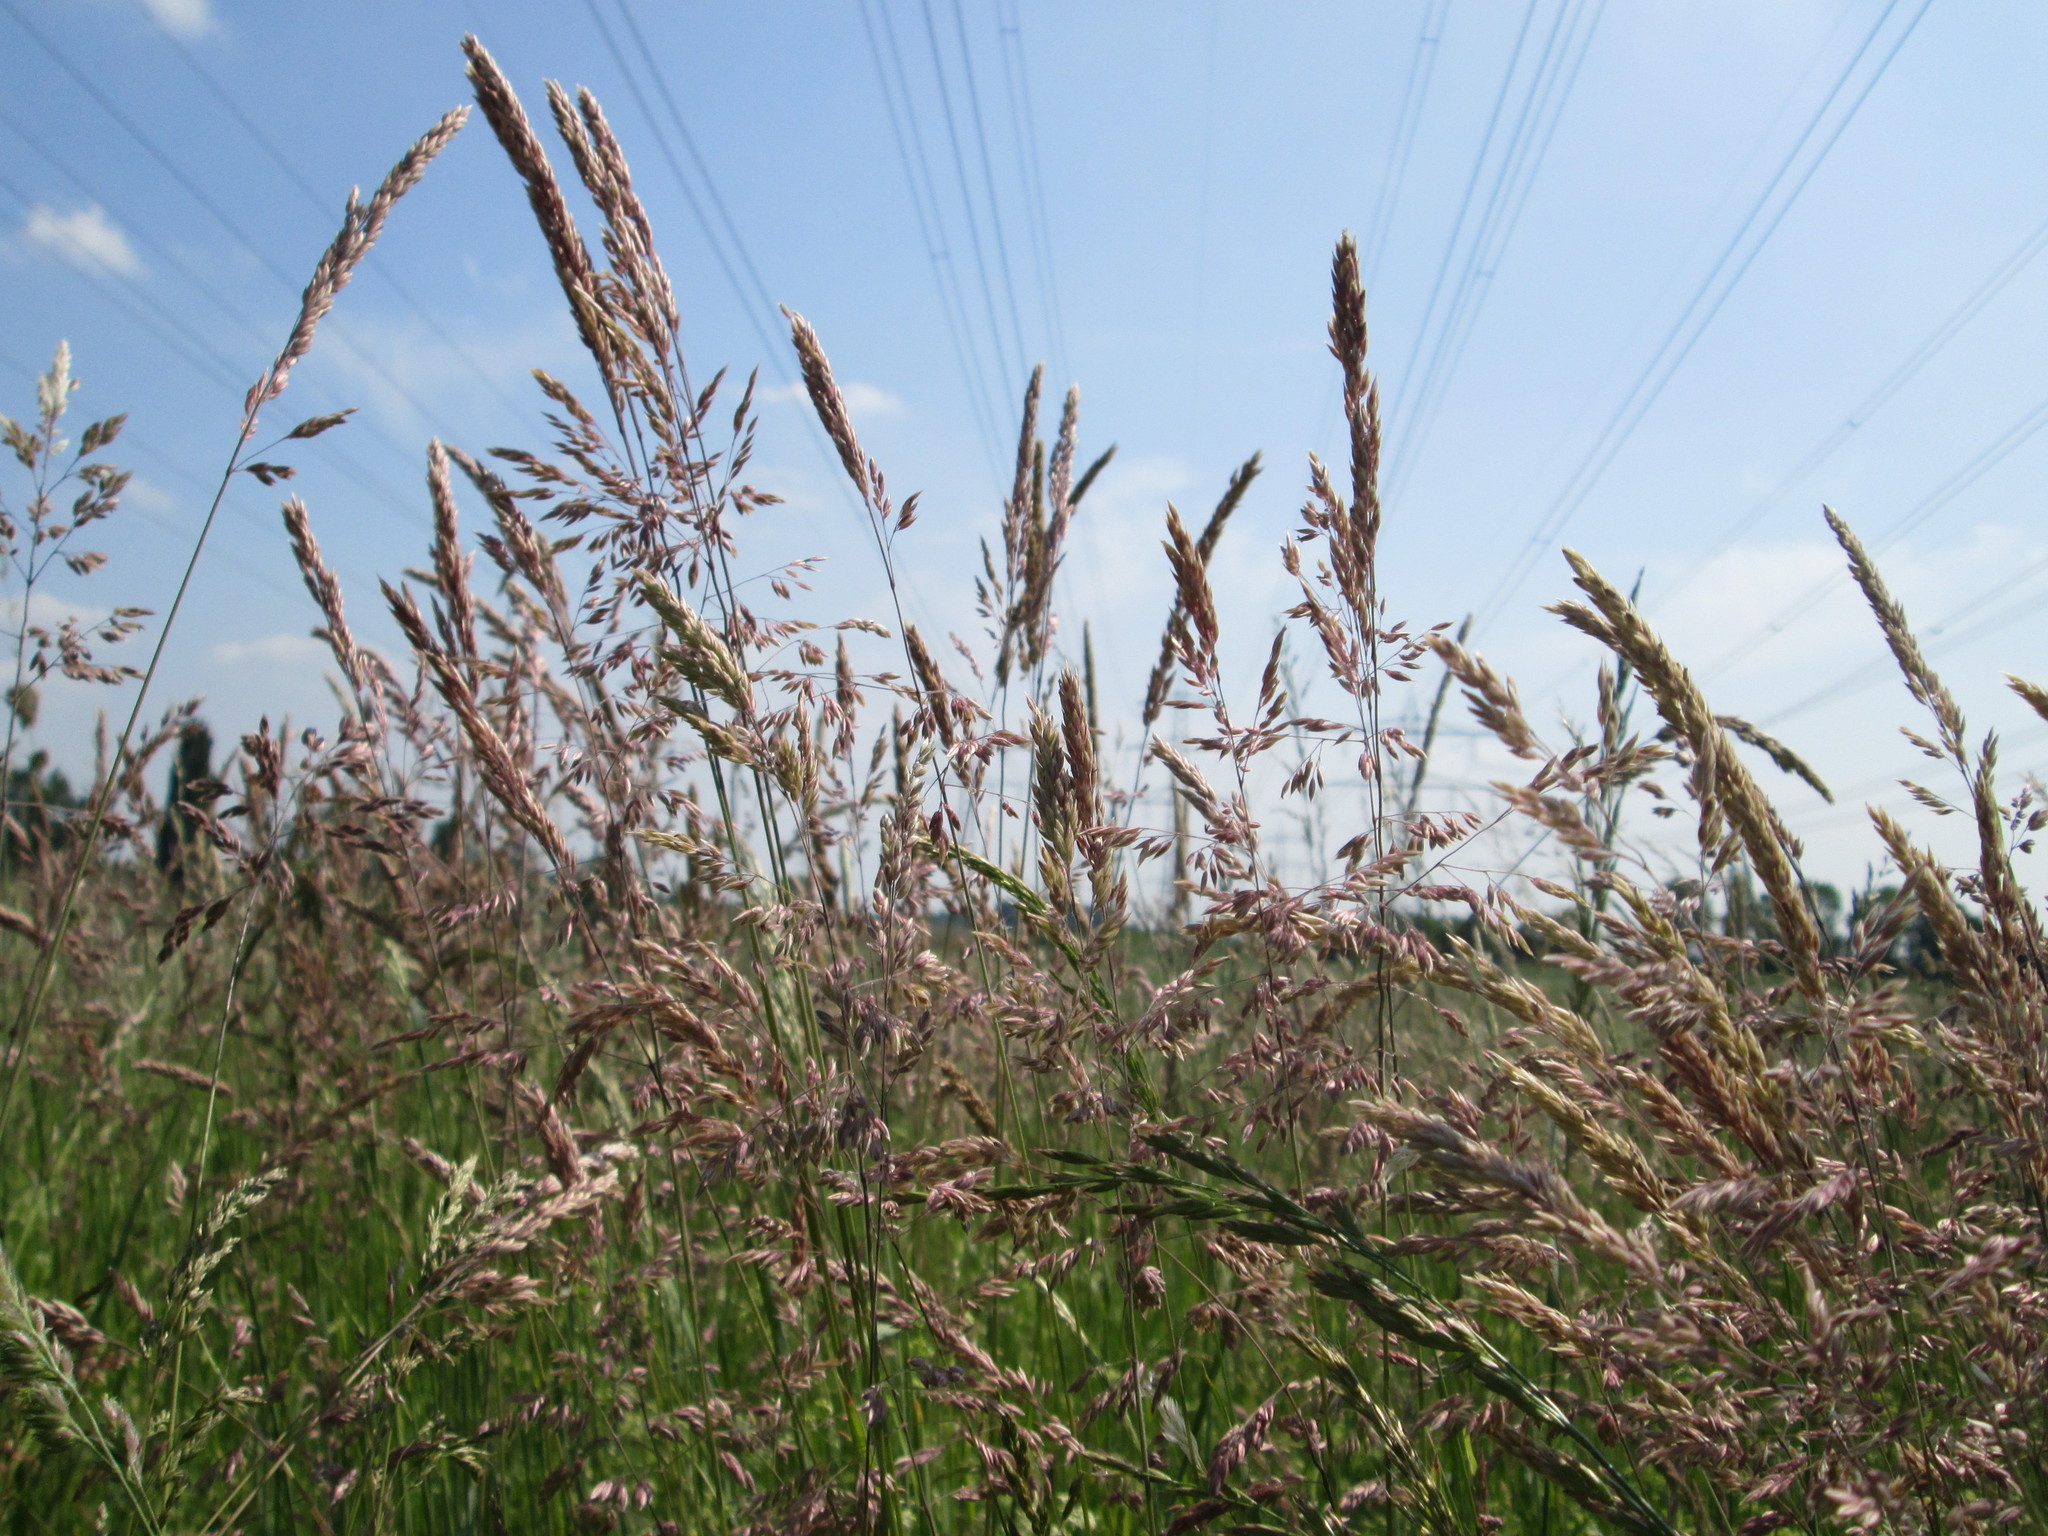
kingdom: Plantae
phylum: Tracheophyta
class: Liliopsida
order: Poales
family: Poaceae
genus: Holcus
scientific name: Holcus lanatus
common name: Yorkshire-fog
